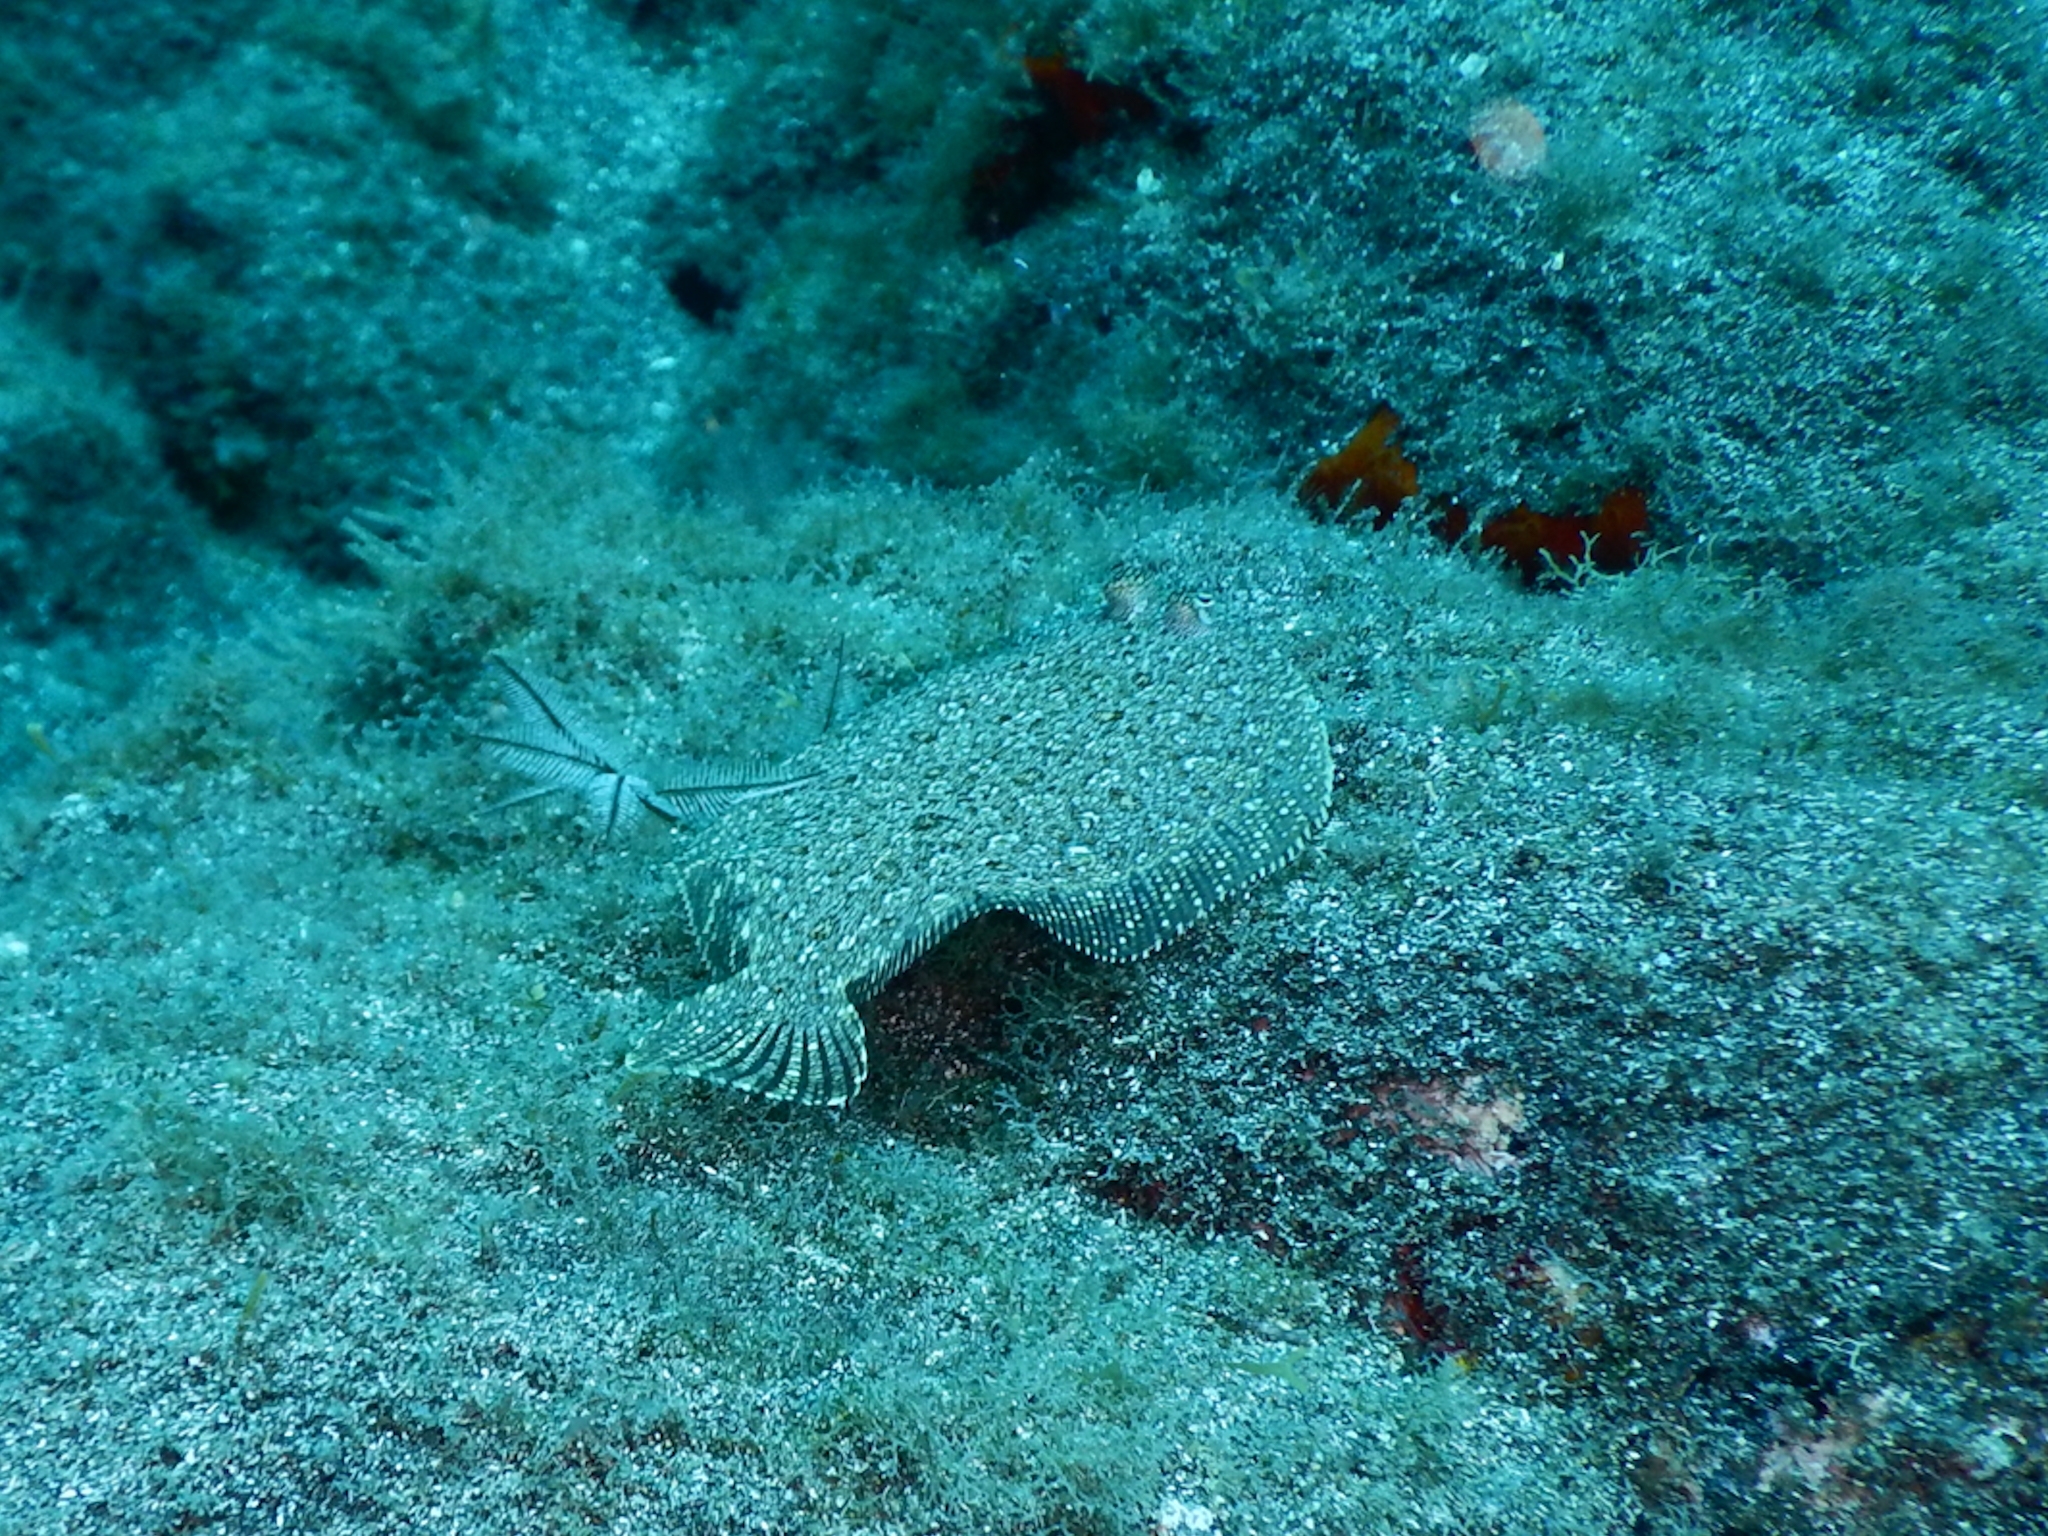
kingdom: Animalia
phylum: Chordata
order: Pleuronectiformes
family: Bothidae
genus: Bothus
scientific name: Bothus podas
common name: Wide-eyed flounder
